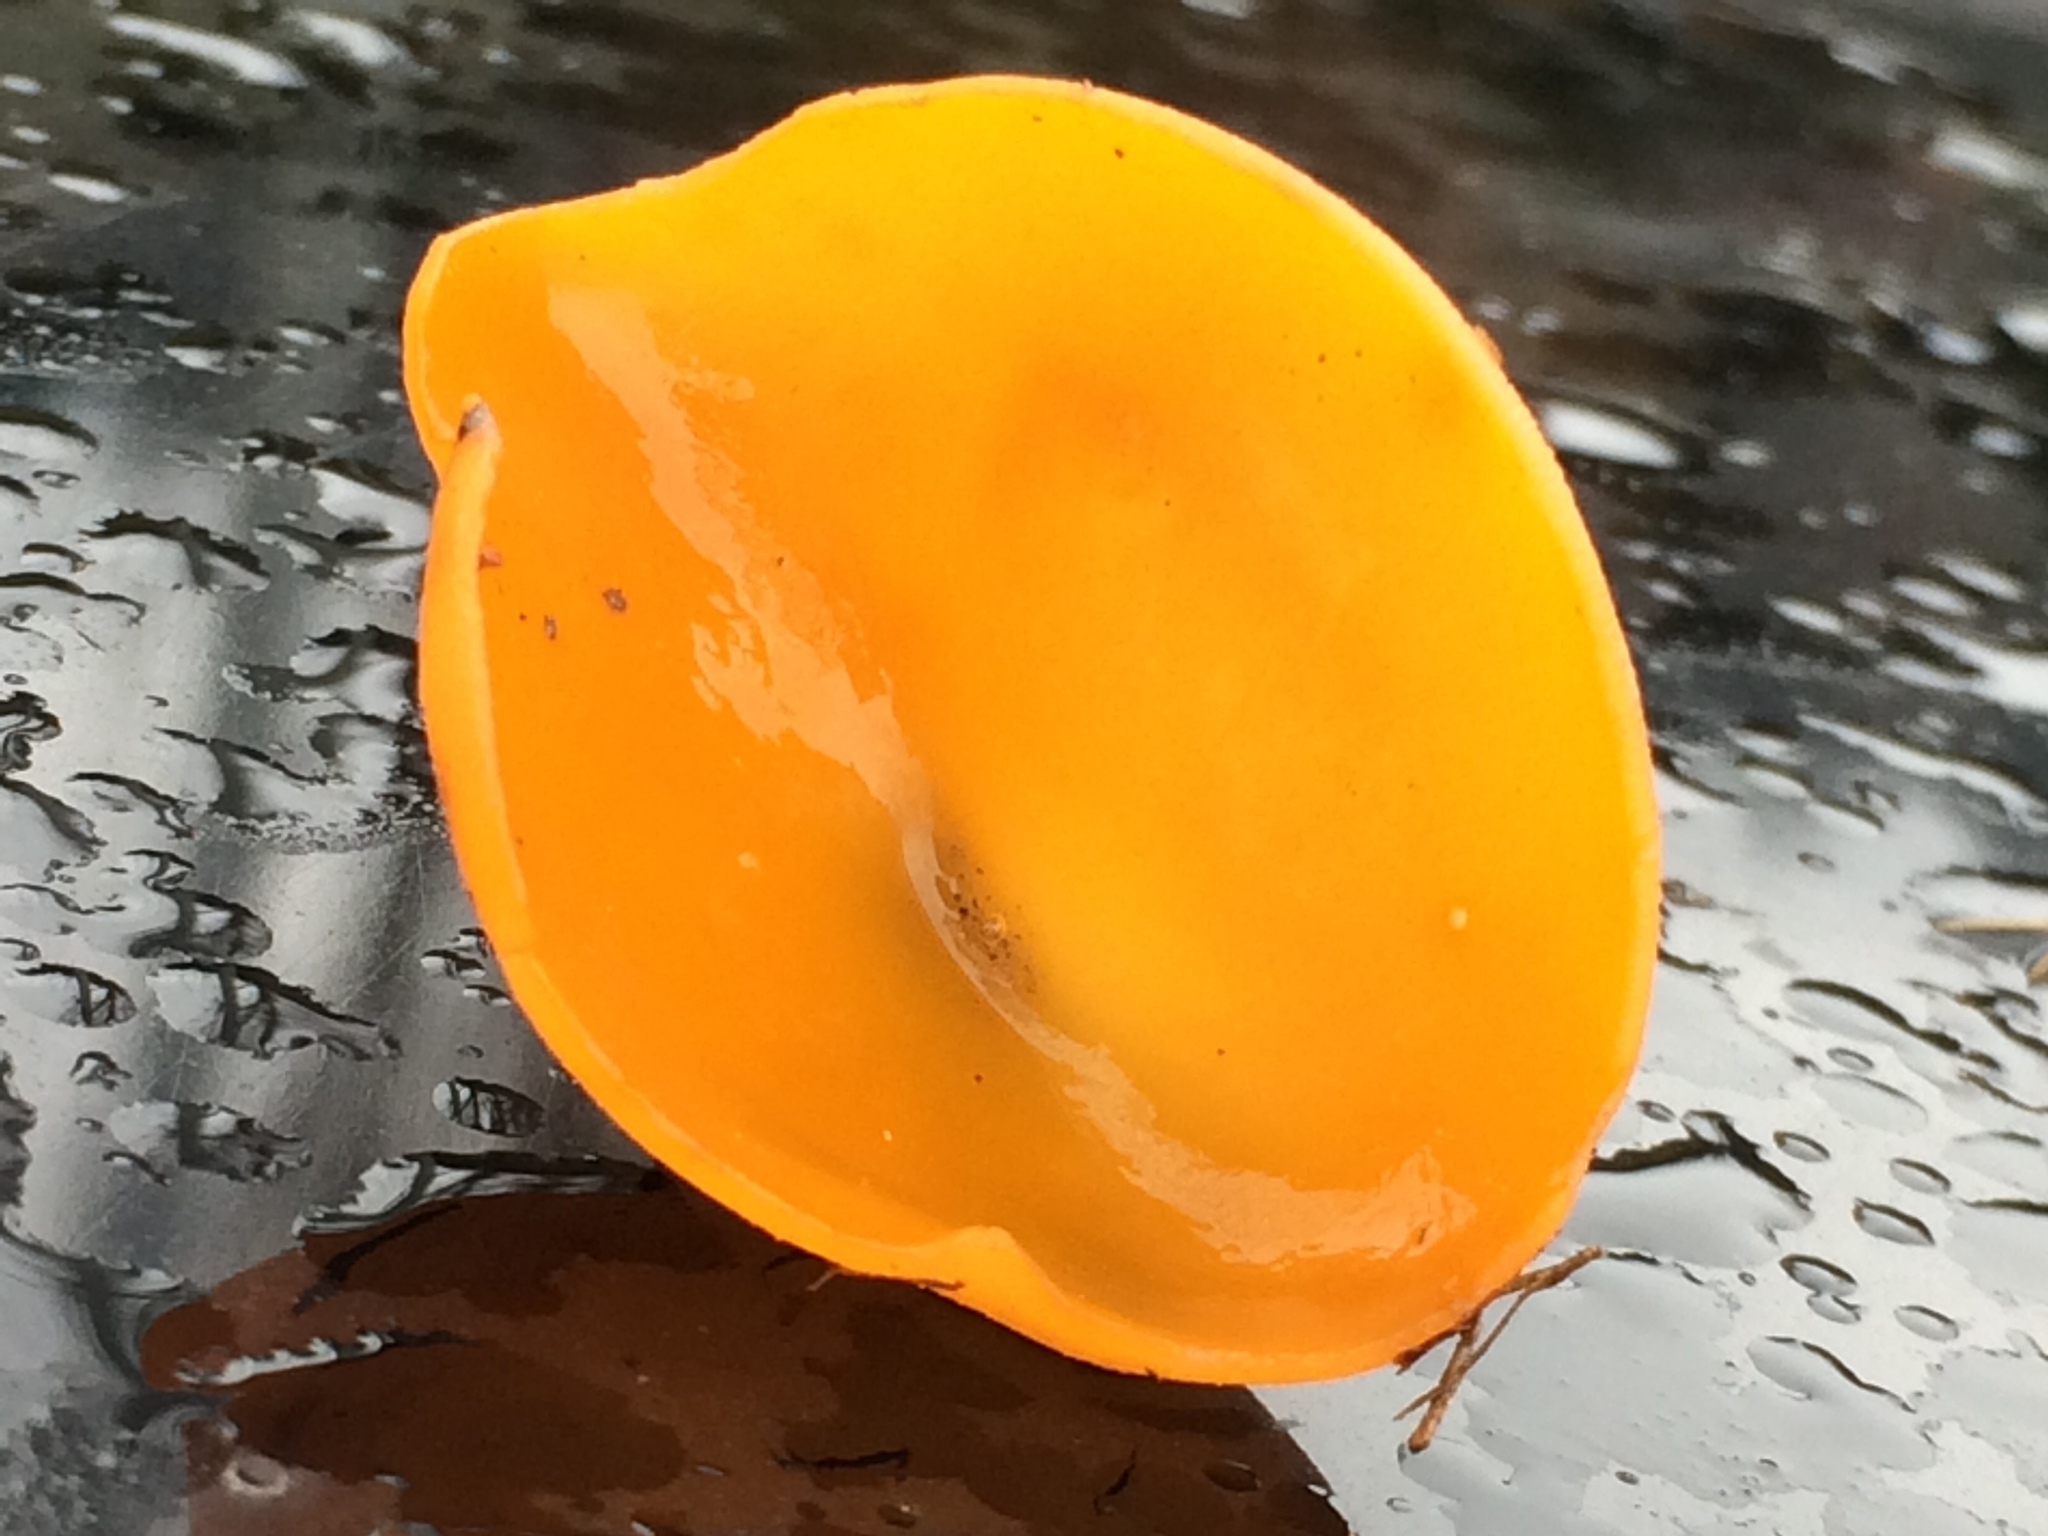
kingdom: Fungi
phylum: Ascomycota
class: Pezizomycetes
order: Pezizales
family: Pyronemataceae
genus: Aleuria
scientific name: Aleuria aurantia
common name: Orange peel fungus
